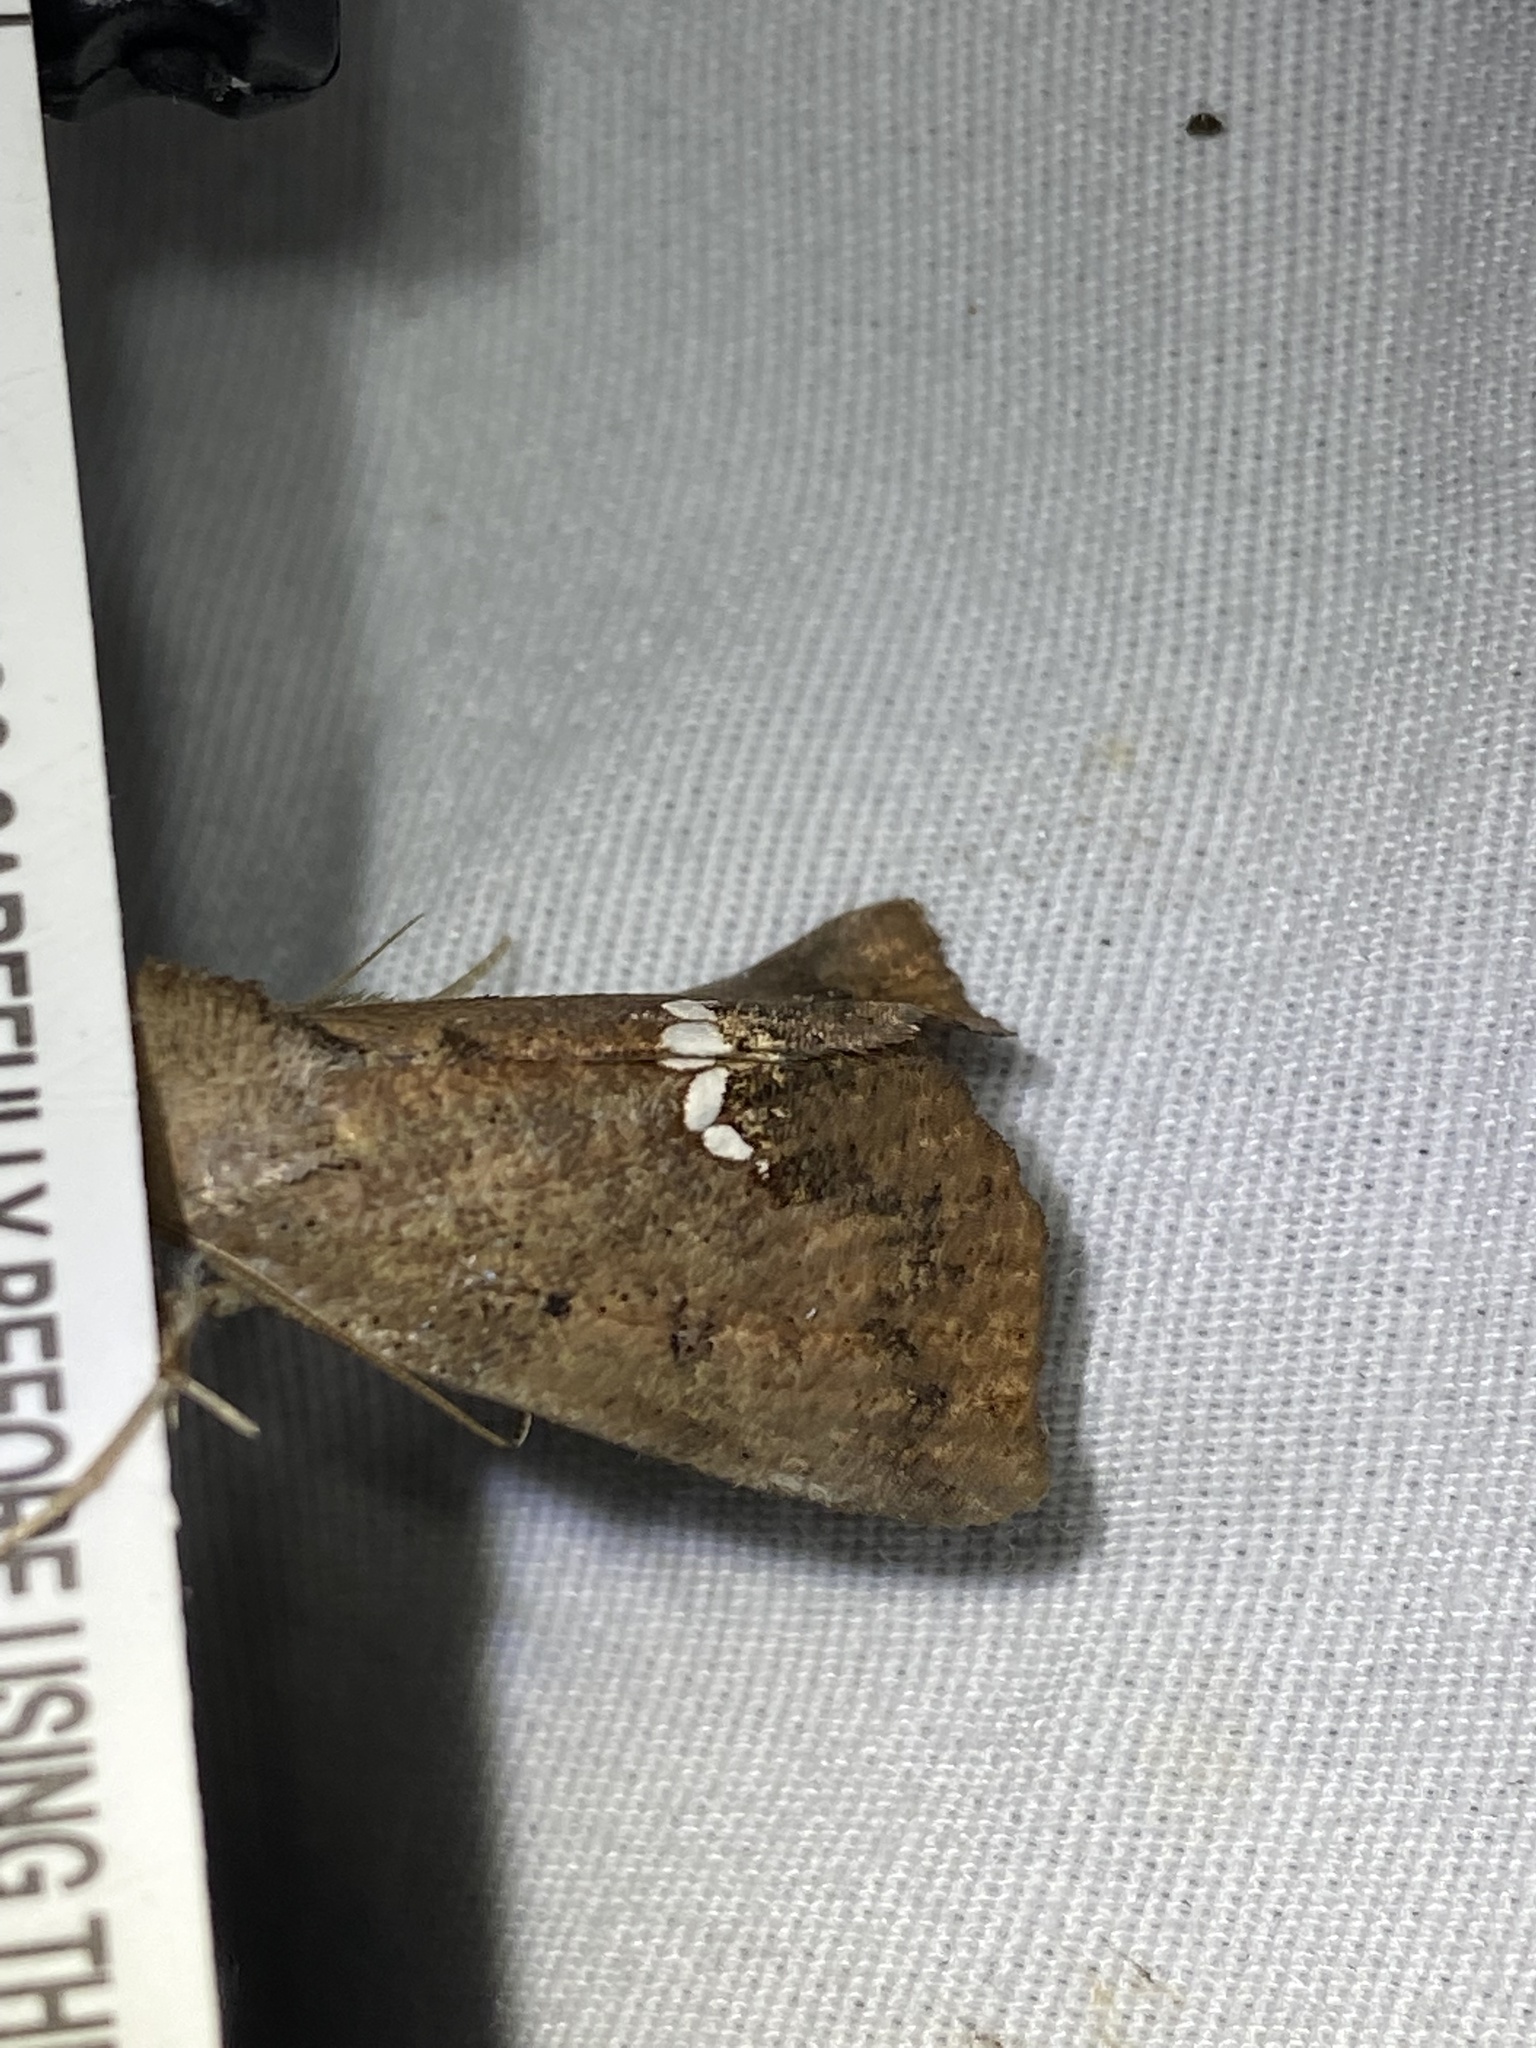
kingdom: Animalia
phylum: Arthropoda
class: Insecta
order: Lepidoptera
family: Erebidae
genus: Hypsoropha
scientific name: Hypsoropha hormos
